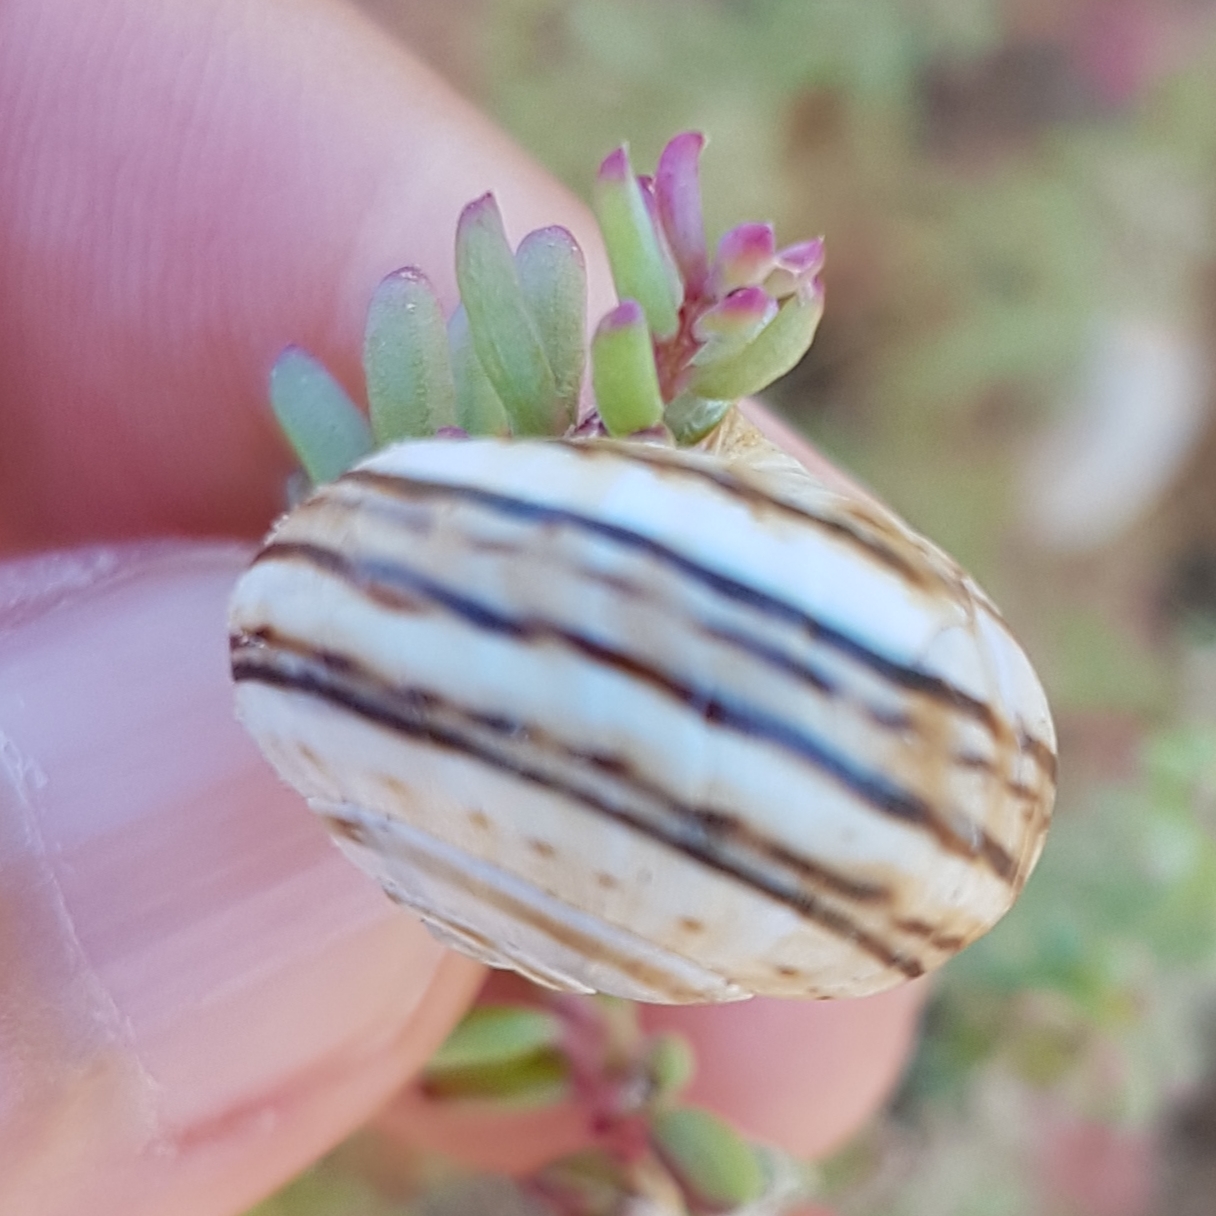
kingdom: Animalia
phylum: Mollusca
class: Gastropoda
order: Stylommatophora
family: Helicidae
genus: Theba
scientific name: Theba pisana
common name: White snail
